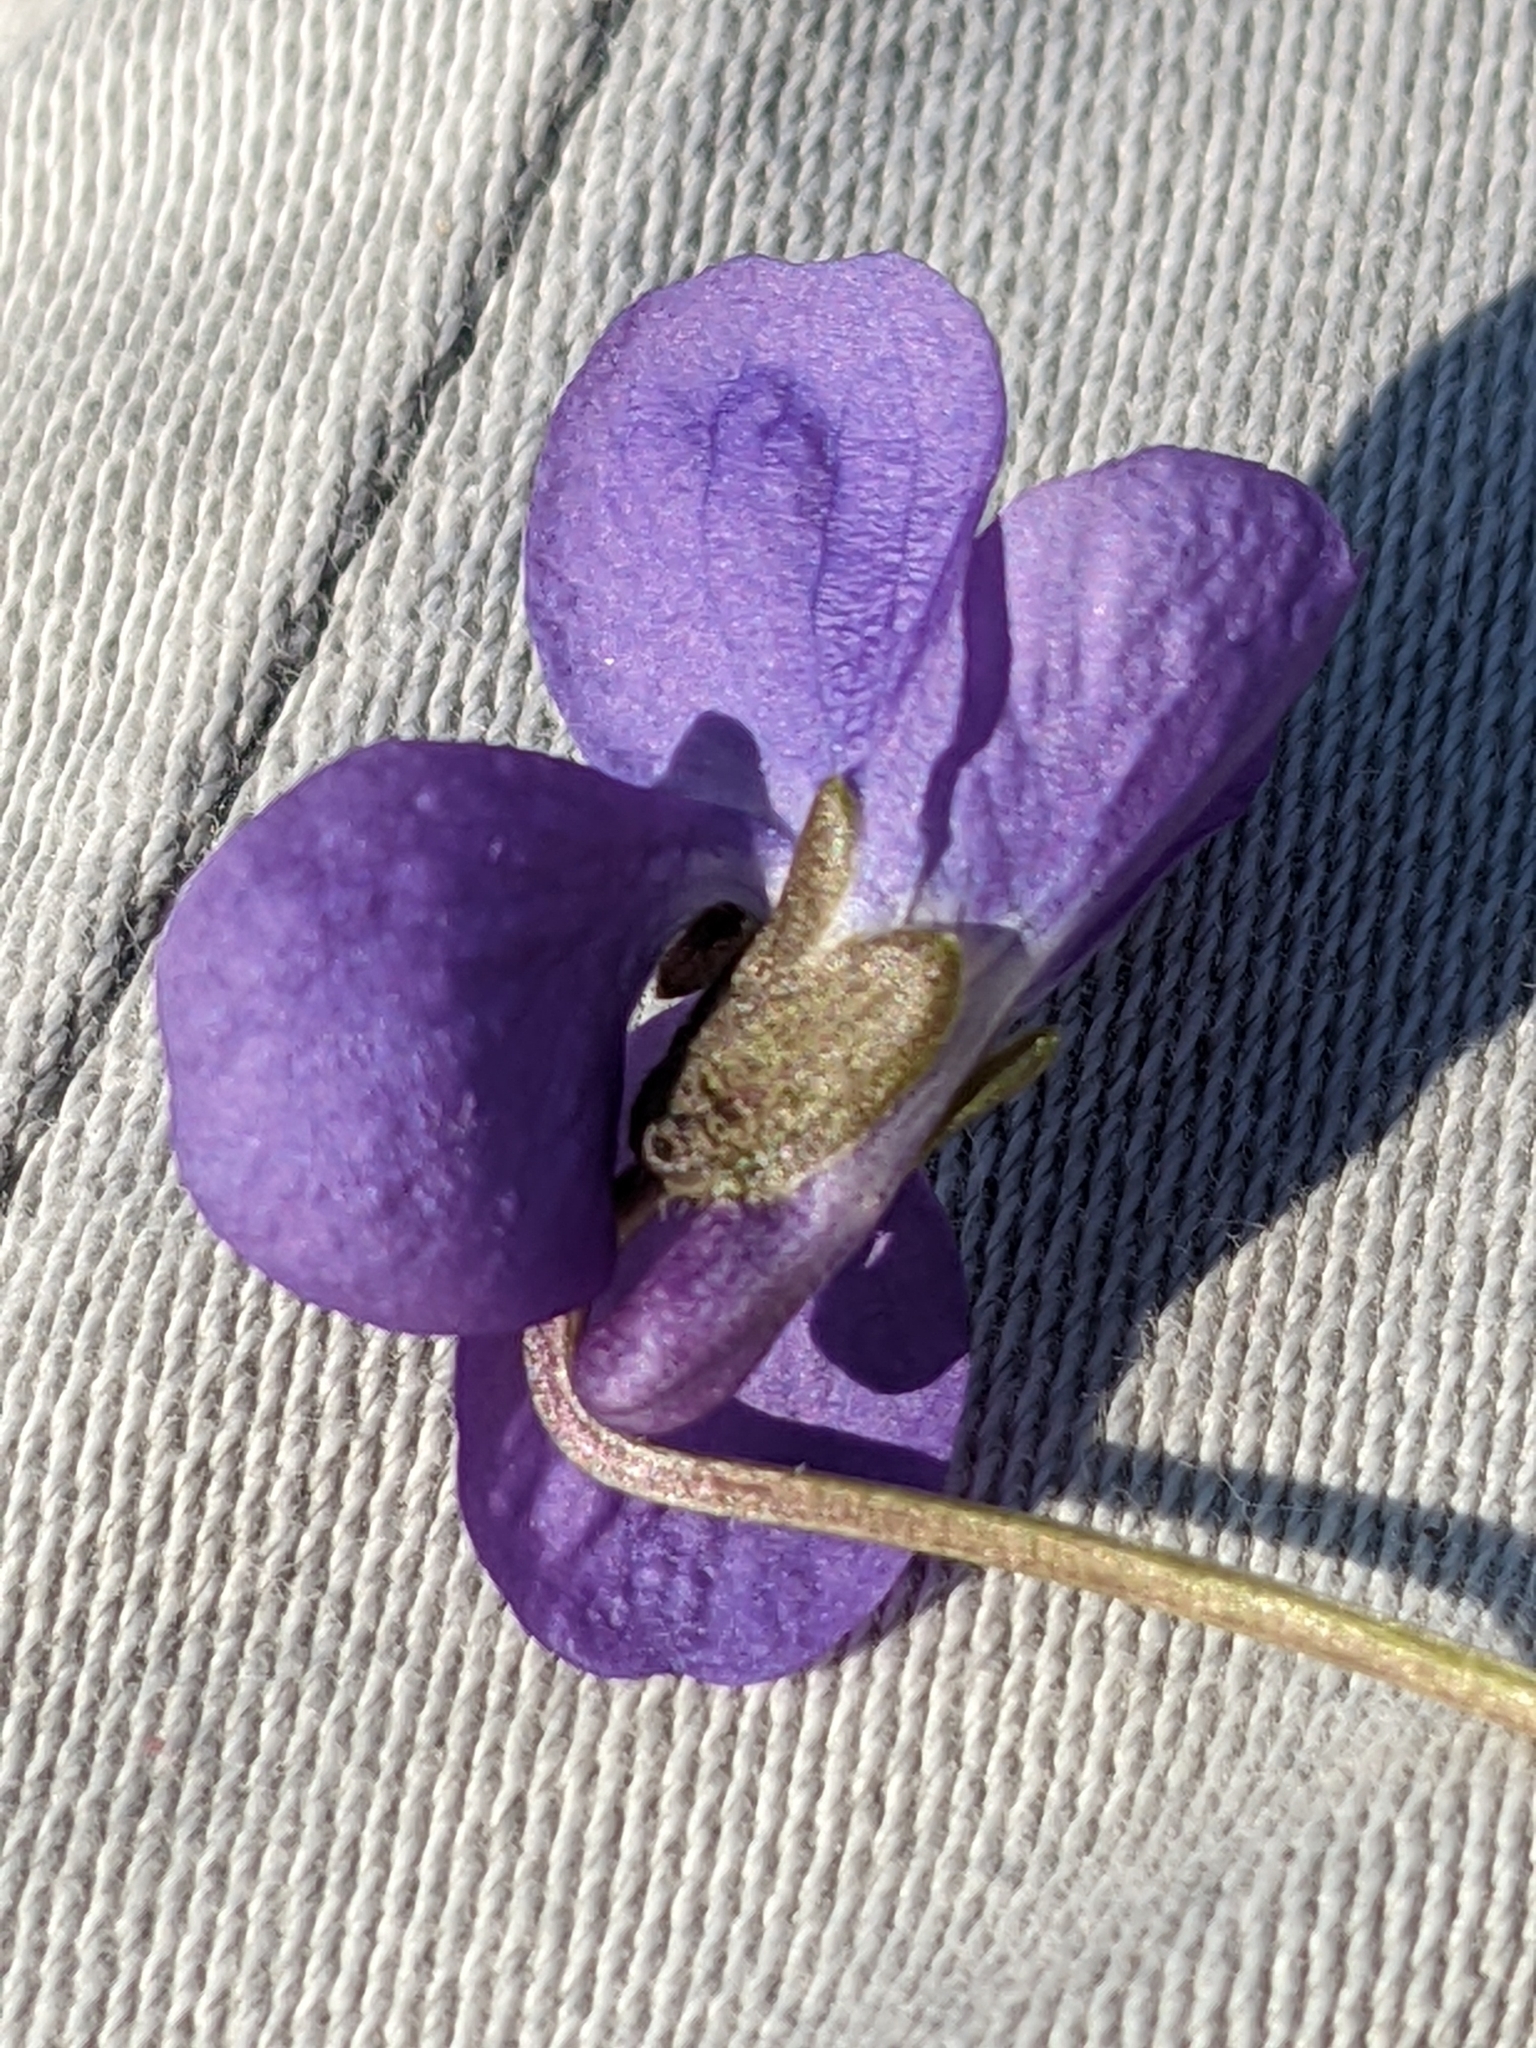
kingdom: Plantae
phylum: Tracheophyta
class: Magnoliopsida
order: Malpighiales
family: Violaceae
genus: Viola
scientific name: Viola alba
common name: White violet
